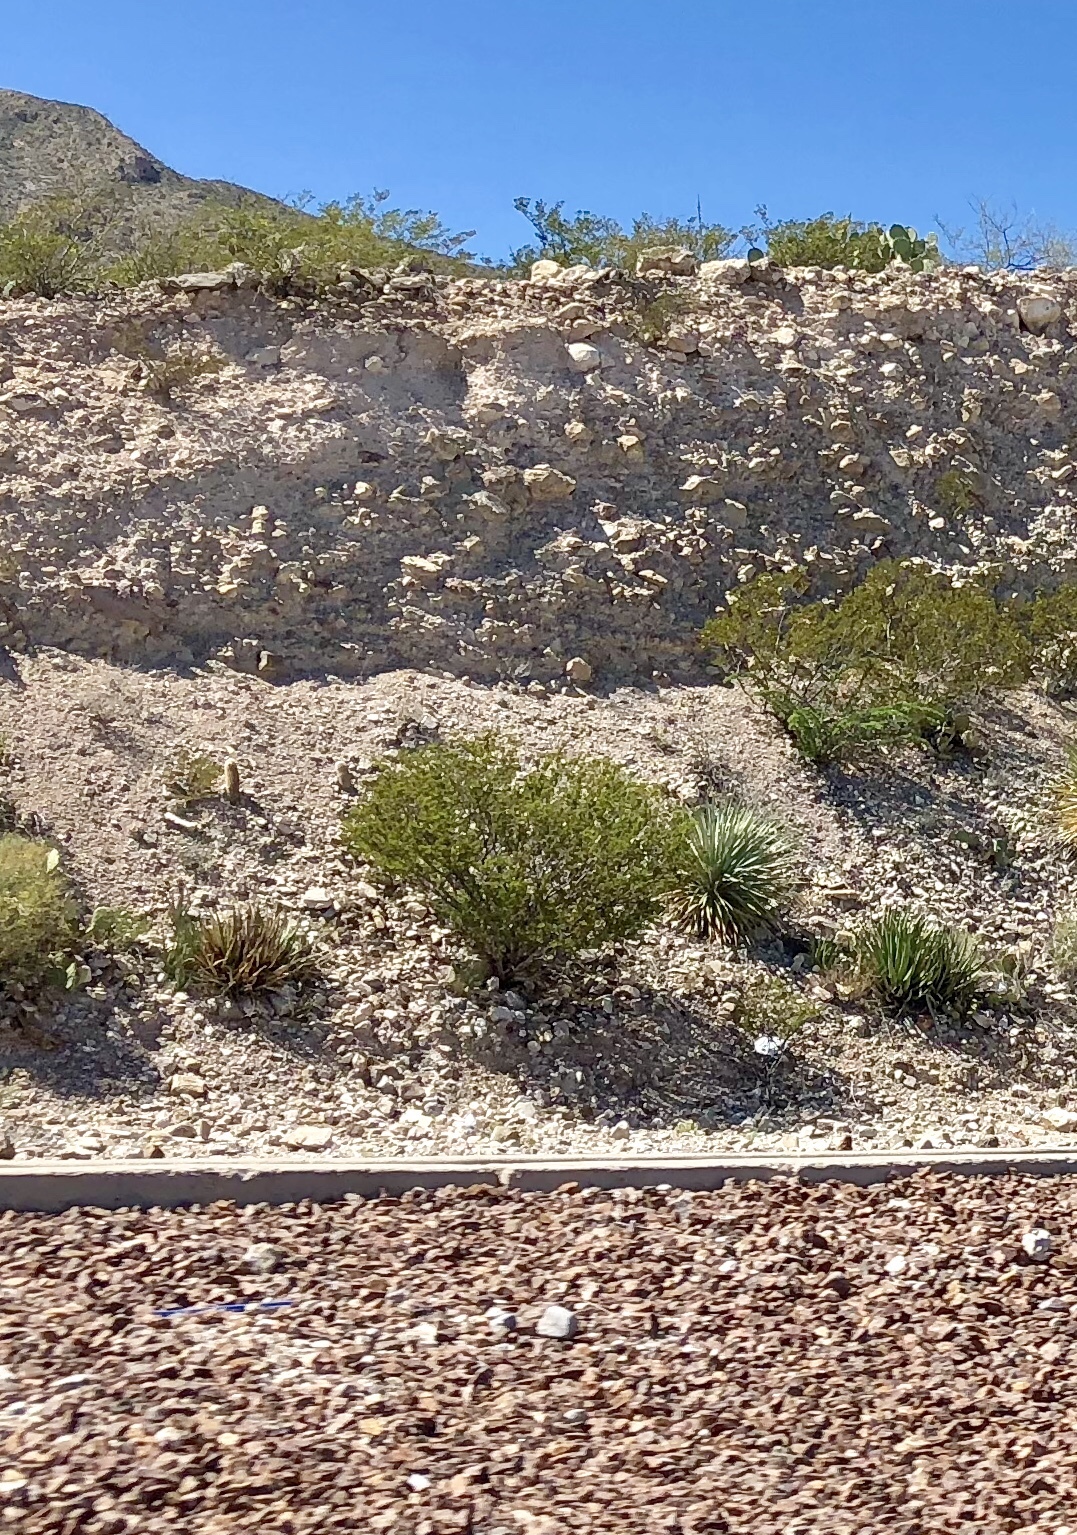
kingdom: Plantae
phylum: Tracheophyta
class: Magnoliopsida
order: Zygophyllales
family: Zygophyllaceae
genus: Larrea
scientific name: Larrea tridentata
